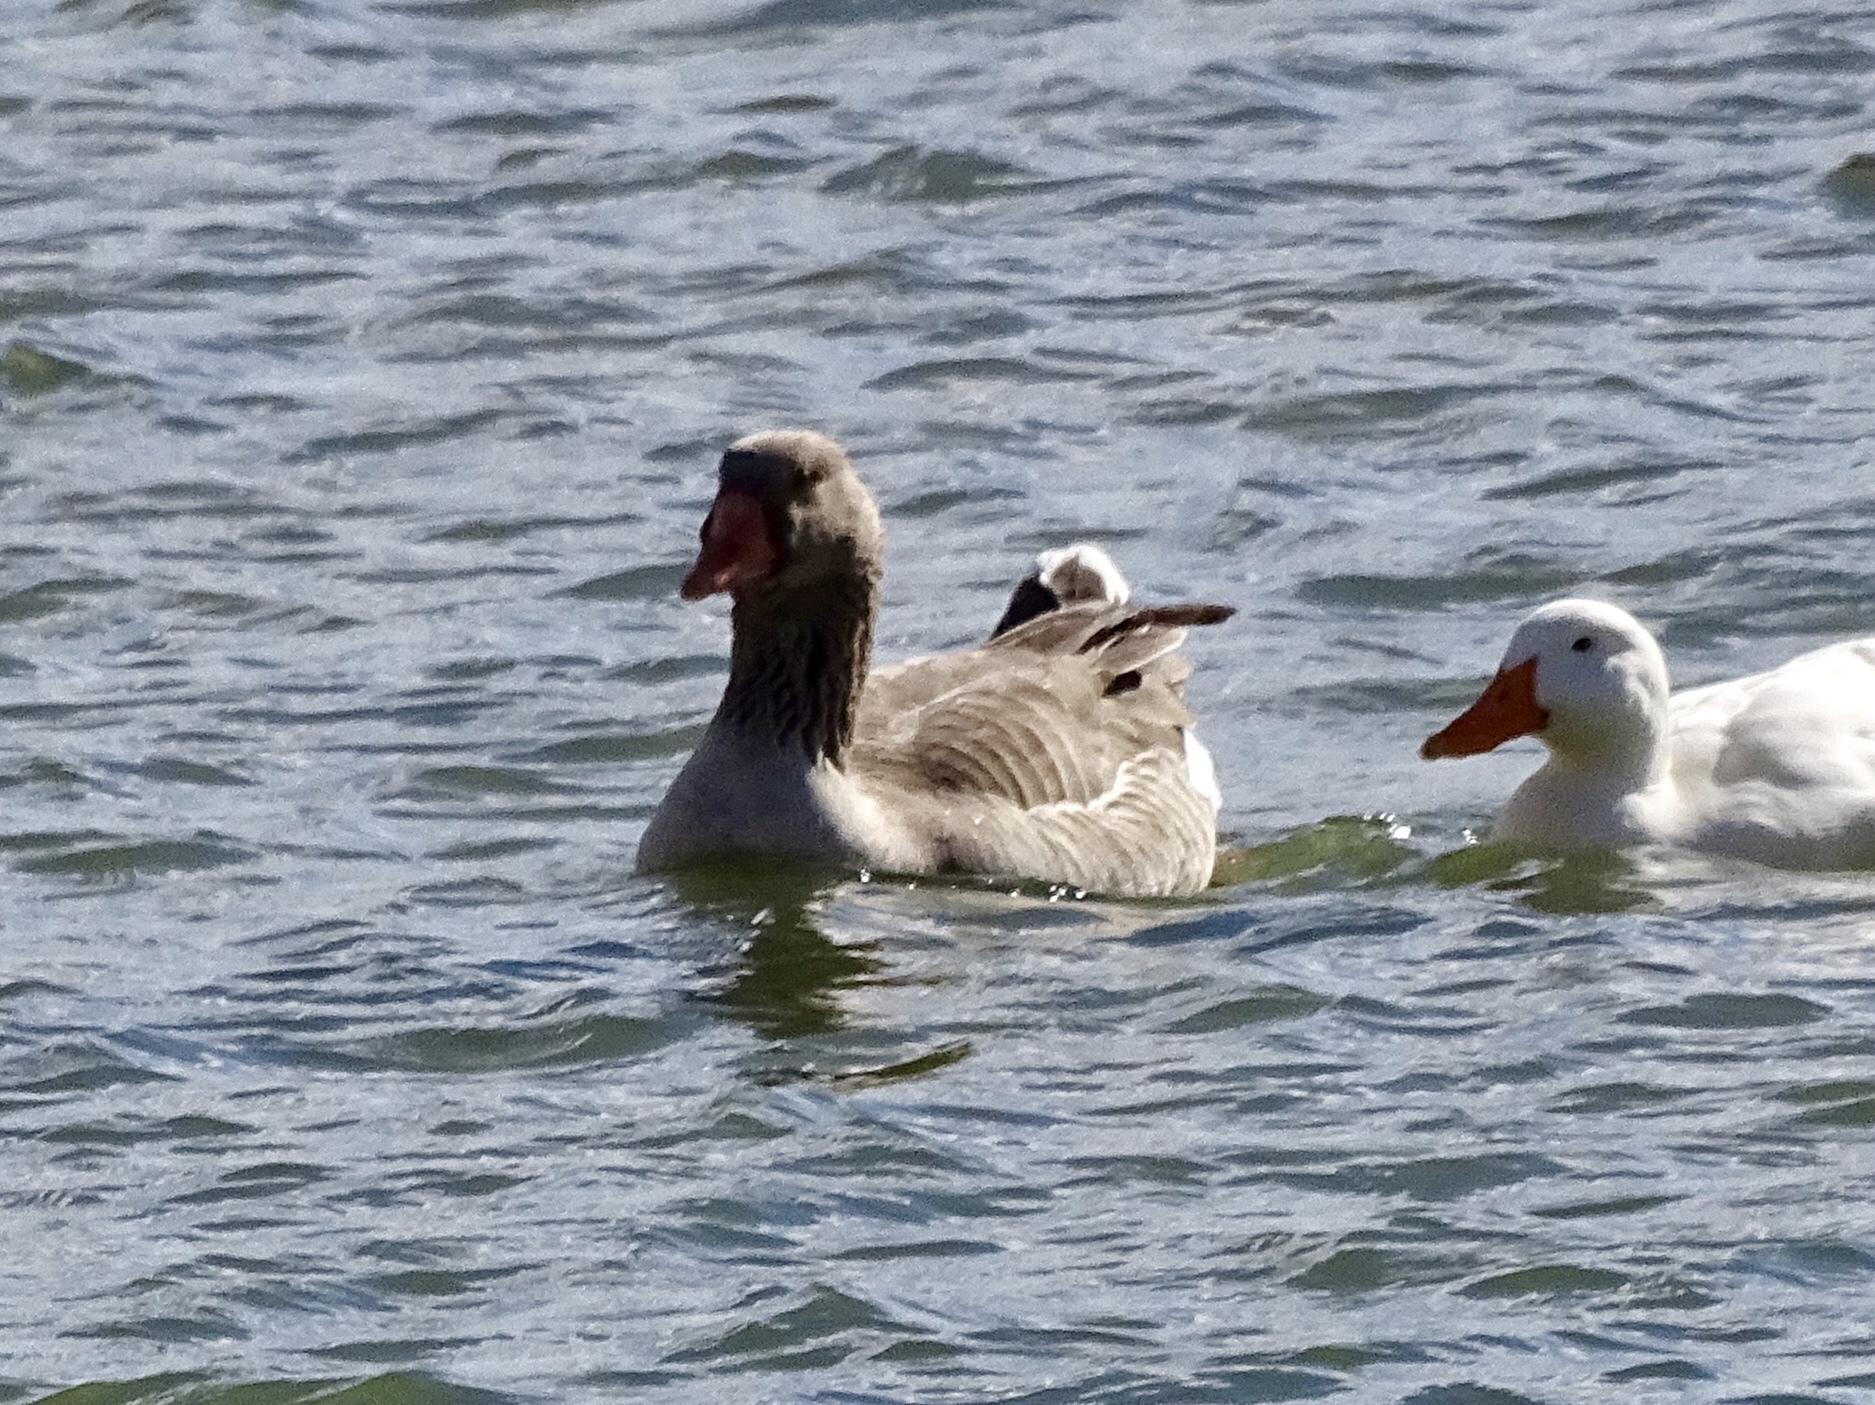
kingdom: Animalia
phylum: Chordata
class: Aves
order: Anseriformes
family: Anatidae
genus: Anser
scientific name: Anser anser
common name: Greylag goose
